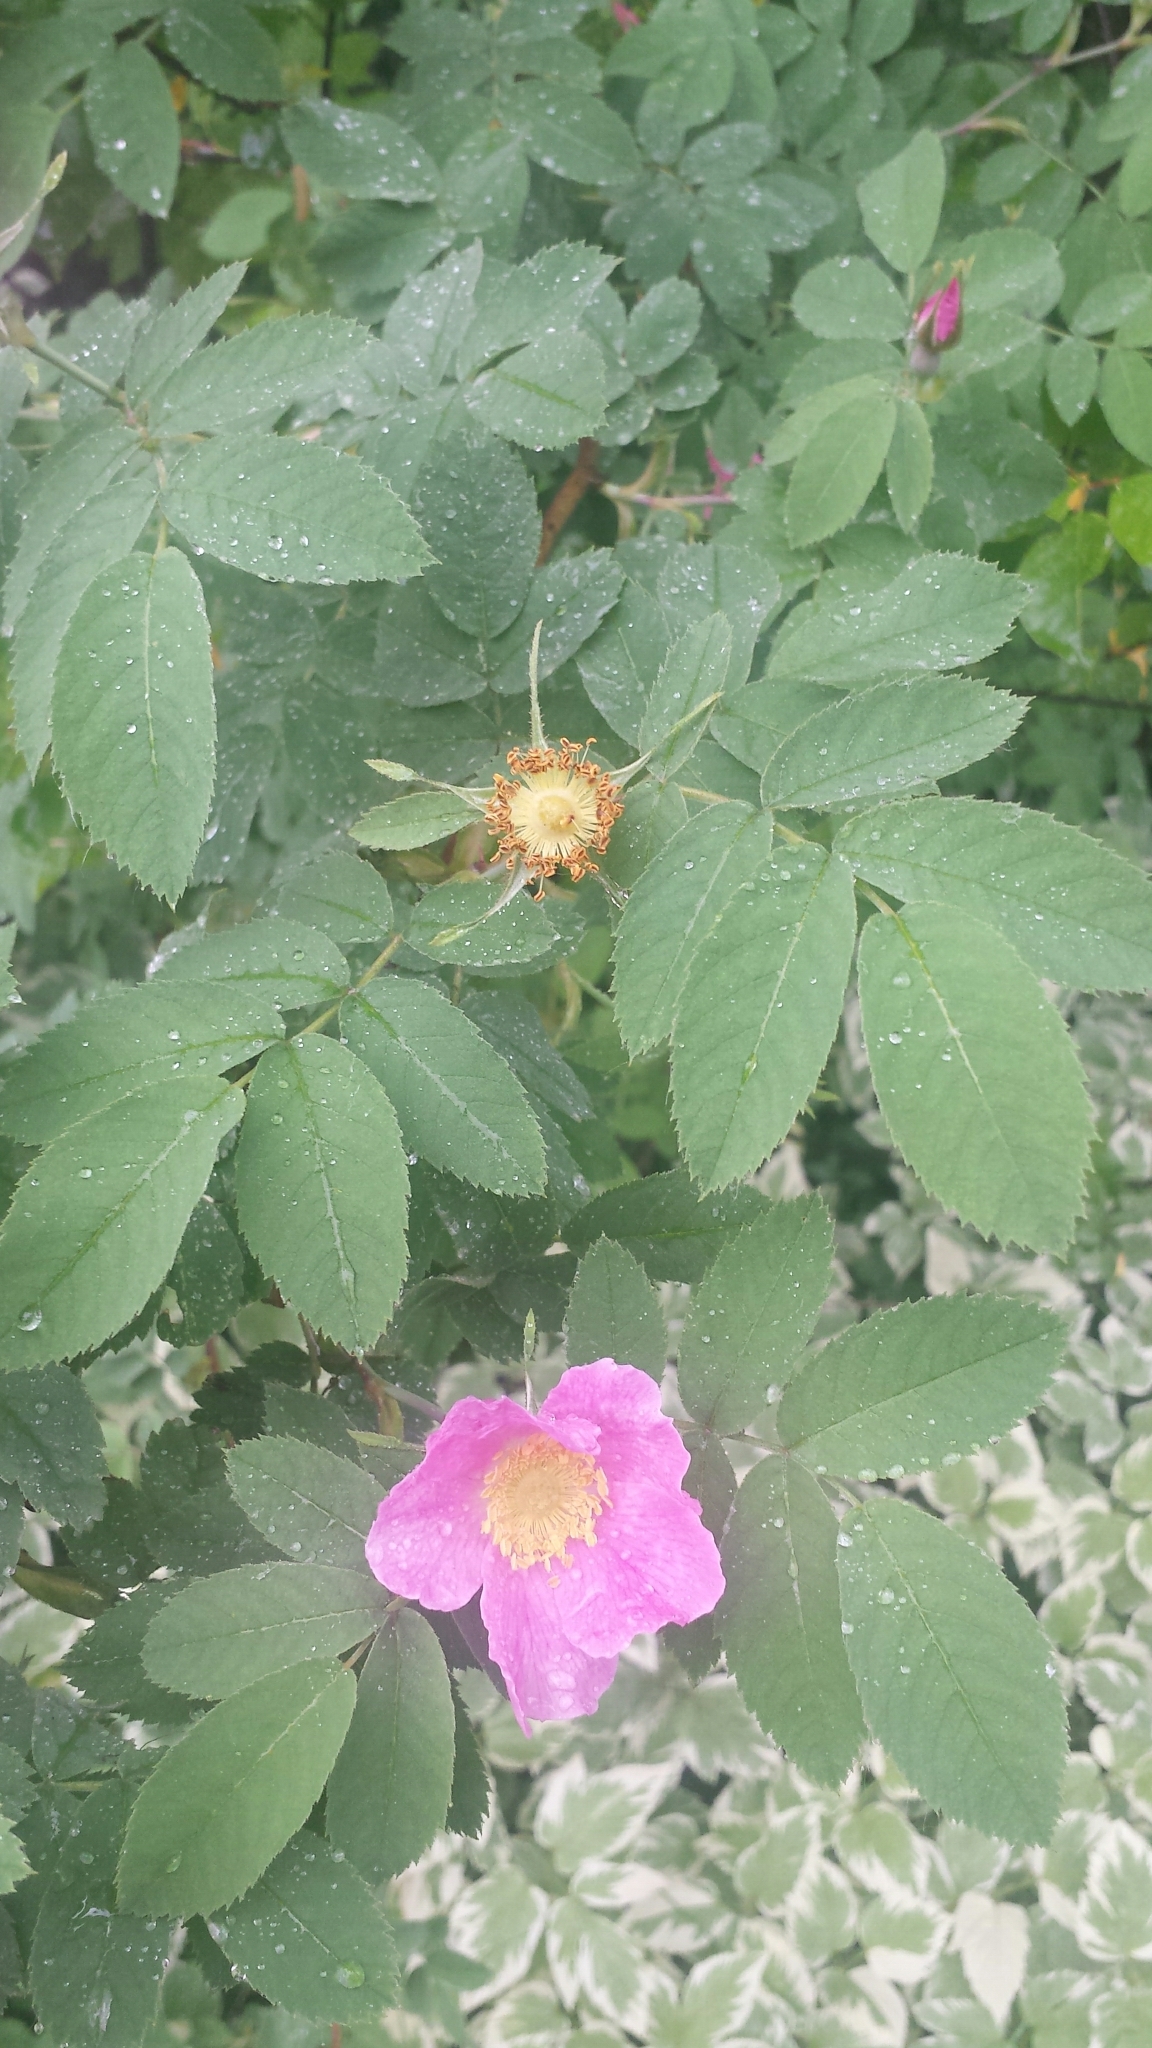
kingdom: Plantae
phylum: Tracheophyta
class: Magnoliopsida
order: Rosales
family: Rosaceae
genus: Rosa
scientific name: Rosa sherardii
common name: Sherard's downy rose
